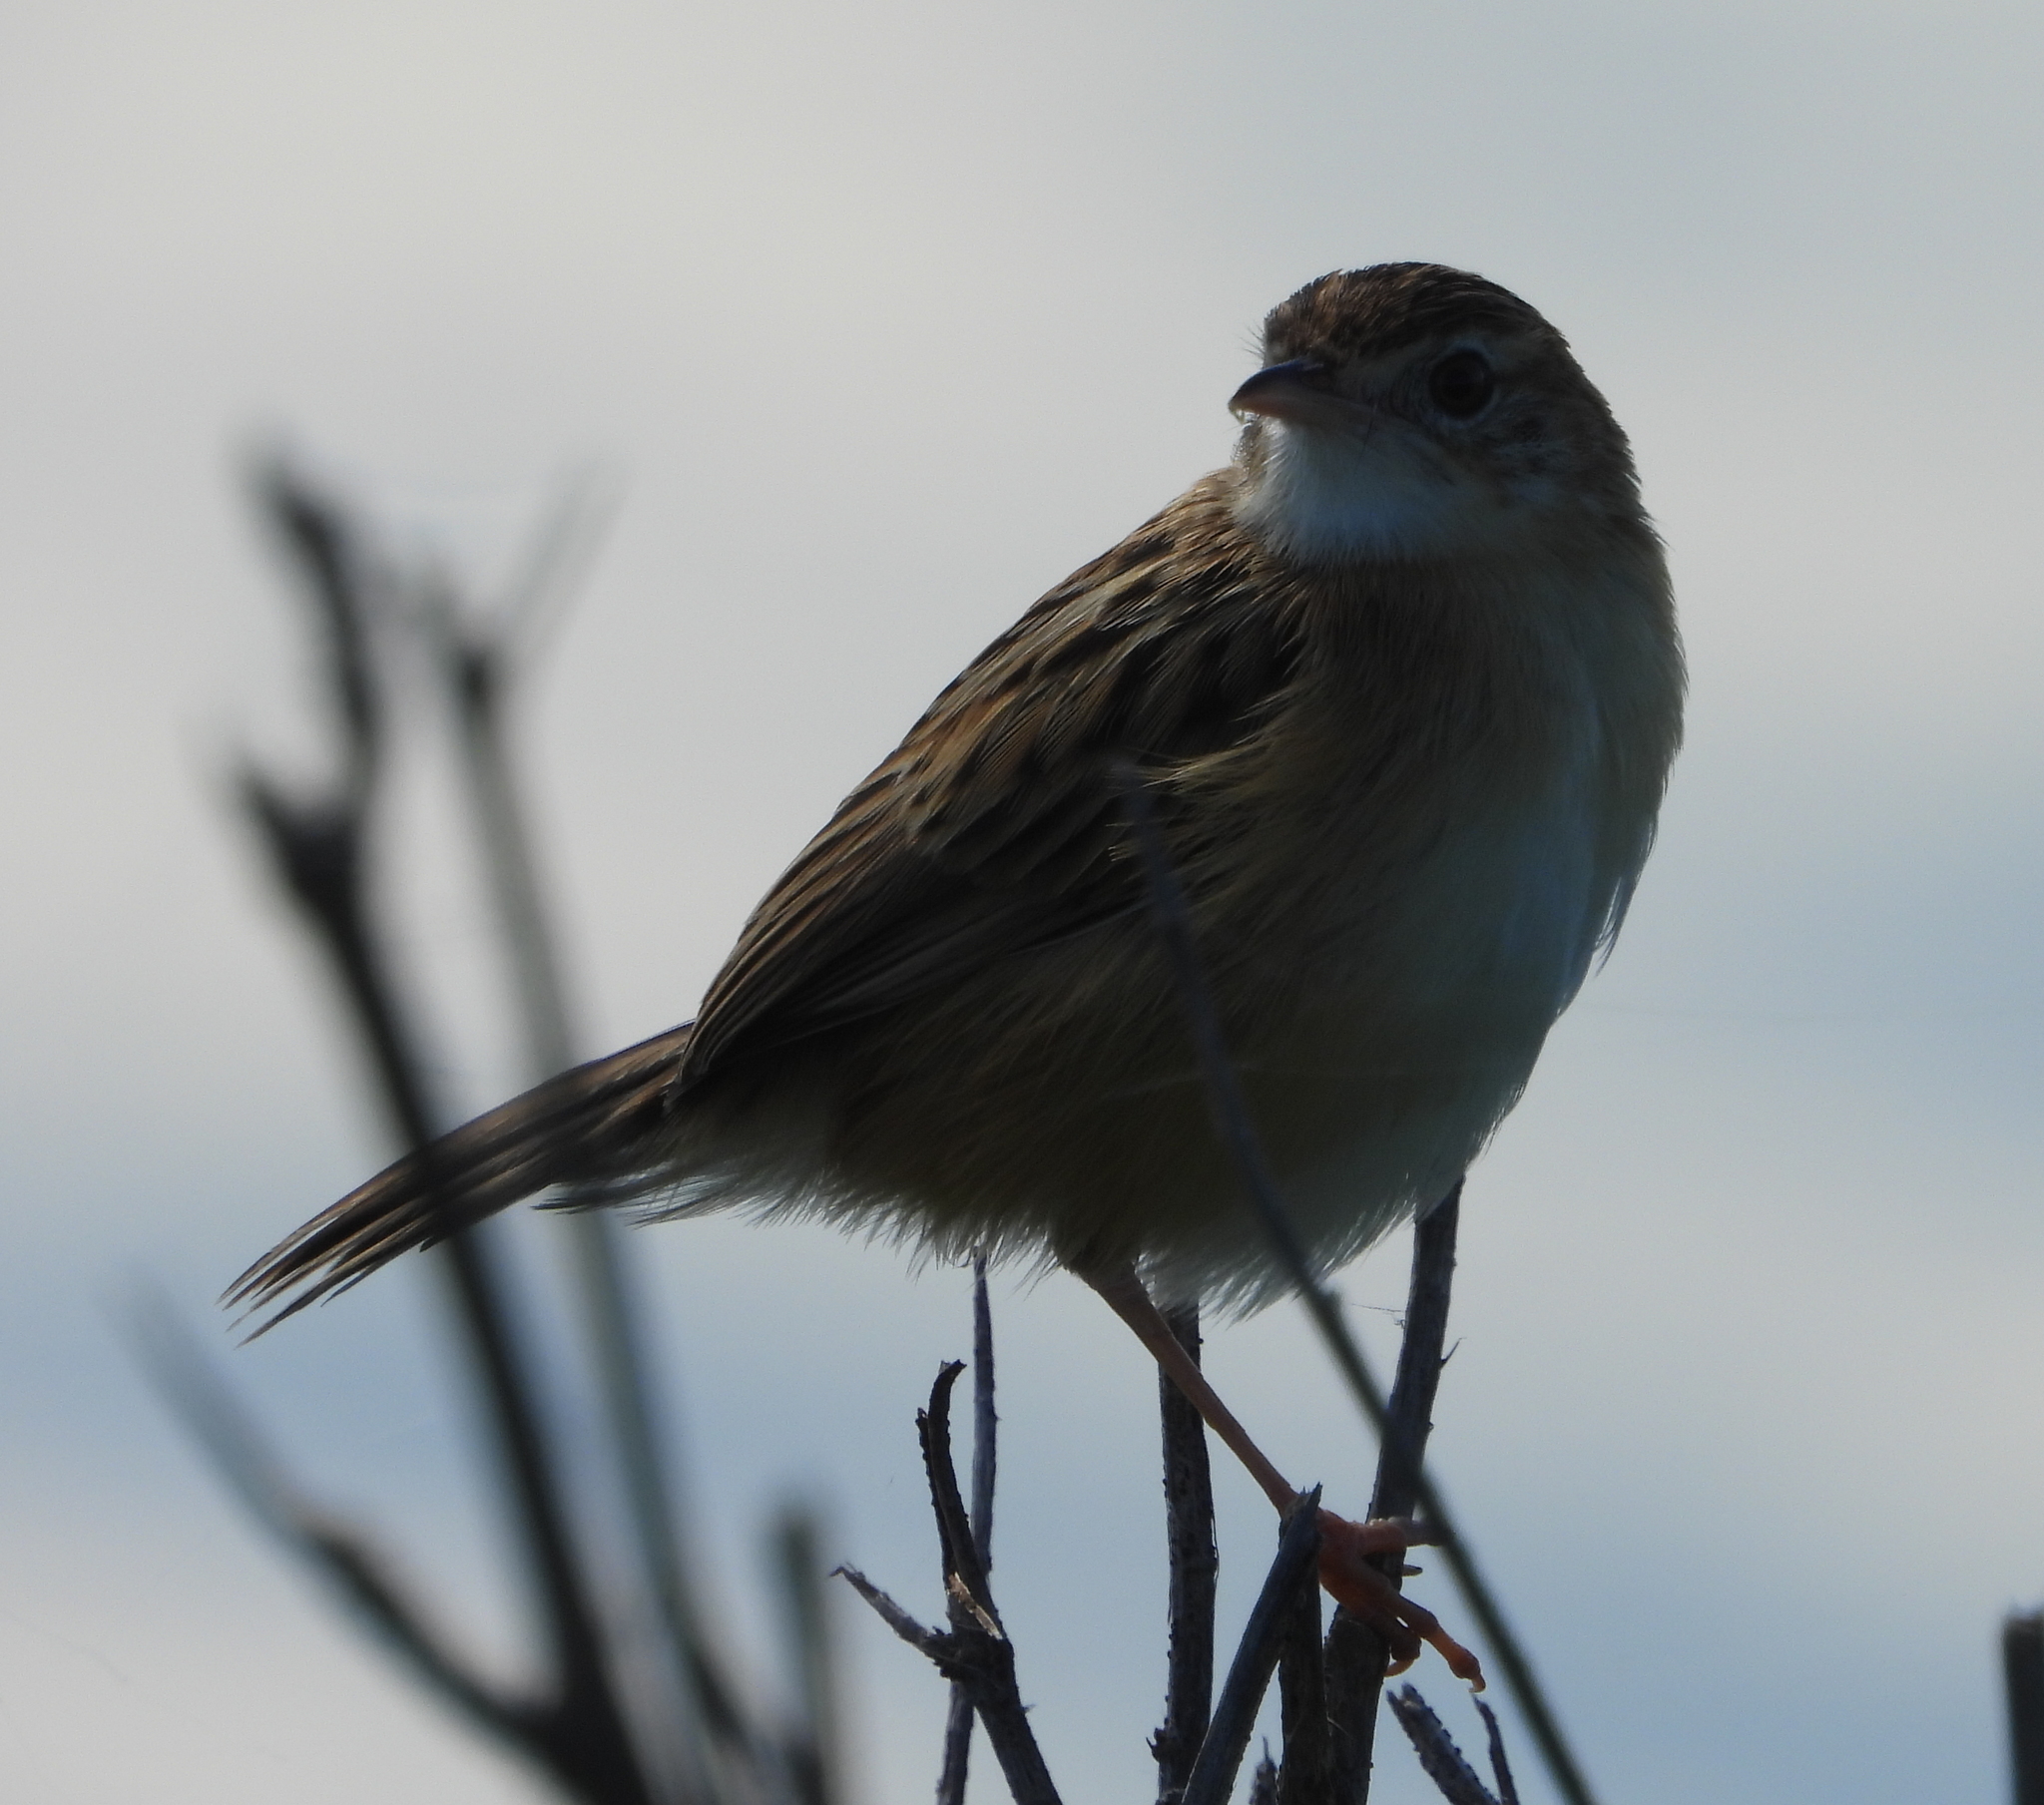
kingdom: Animalia
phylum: Chordata
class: Aves
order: Passeriformes
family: Cisticolidae
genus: Cisticola
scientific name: Cisticola juncidis
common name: Zitting cisticola
